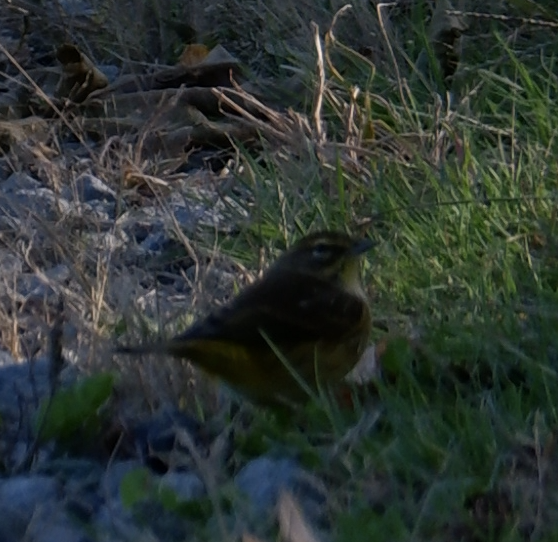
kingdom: Animalia
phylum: Chordata
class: Aves
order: Passeriformes
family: Parulidae
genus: Setophaga
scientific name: Setophaga palmarum
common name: Palm warbler
